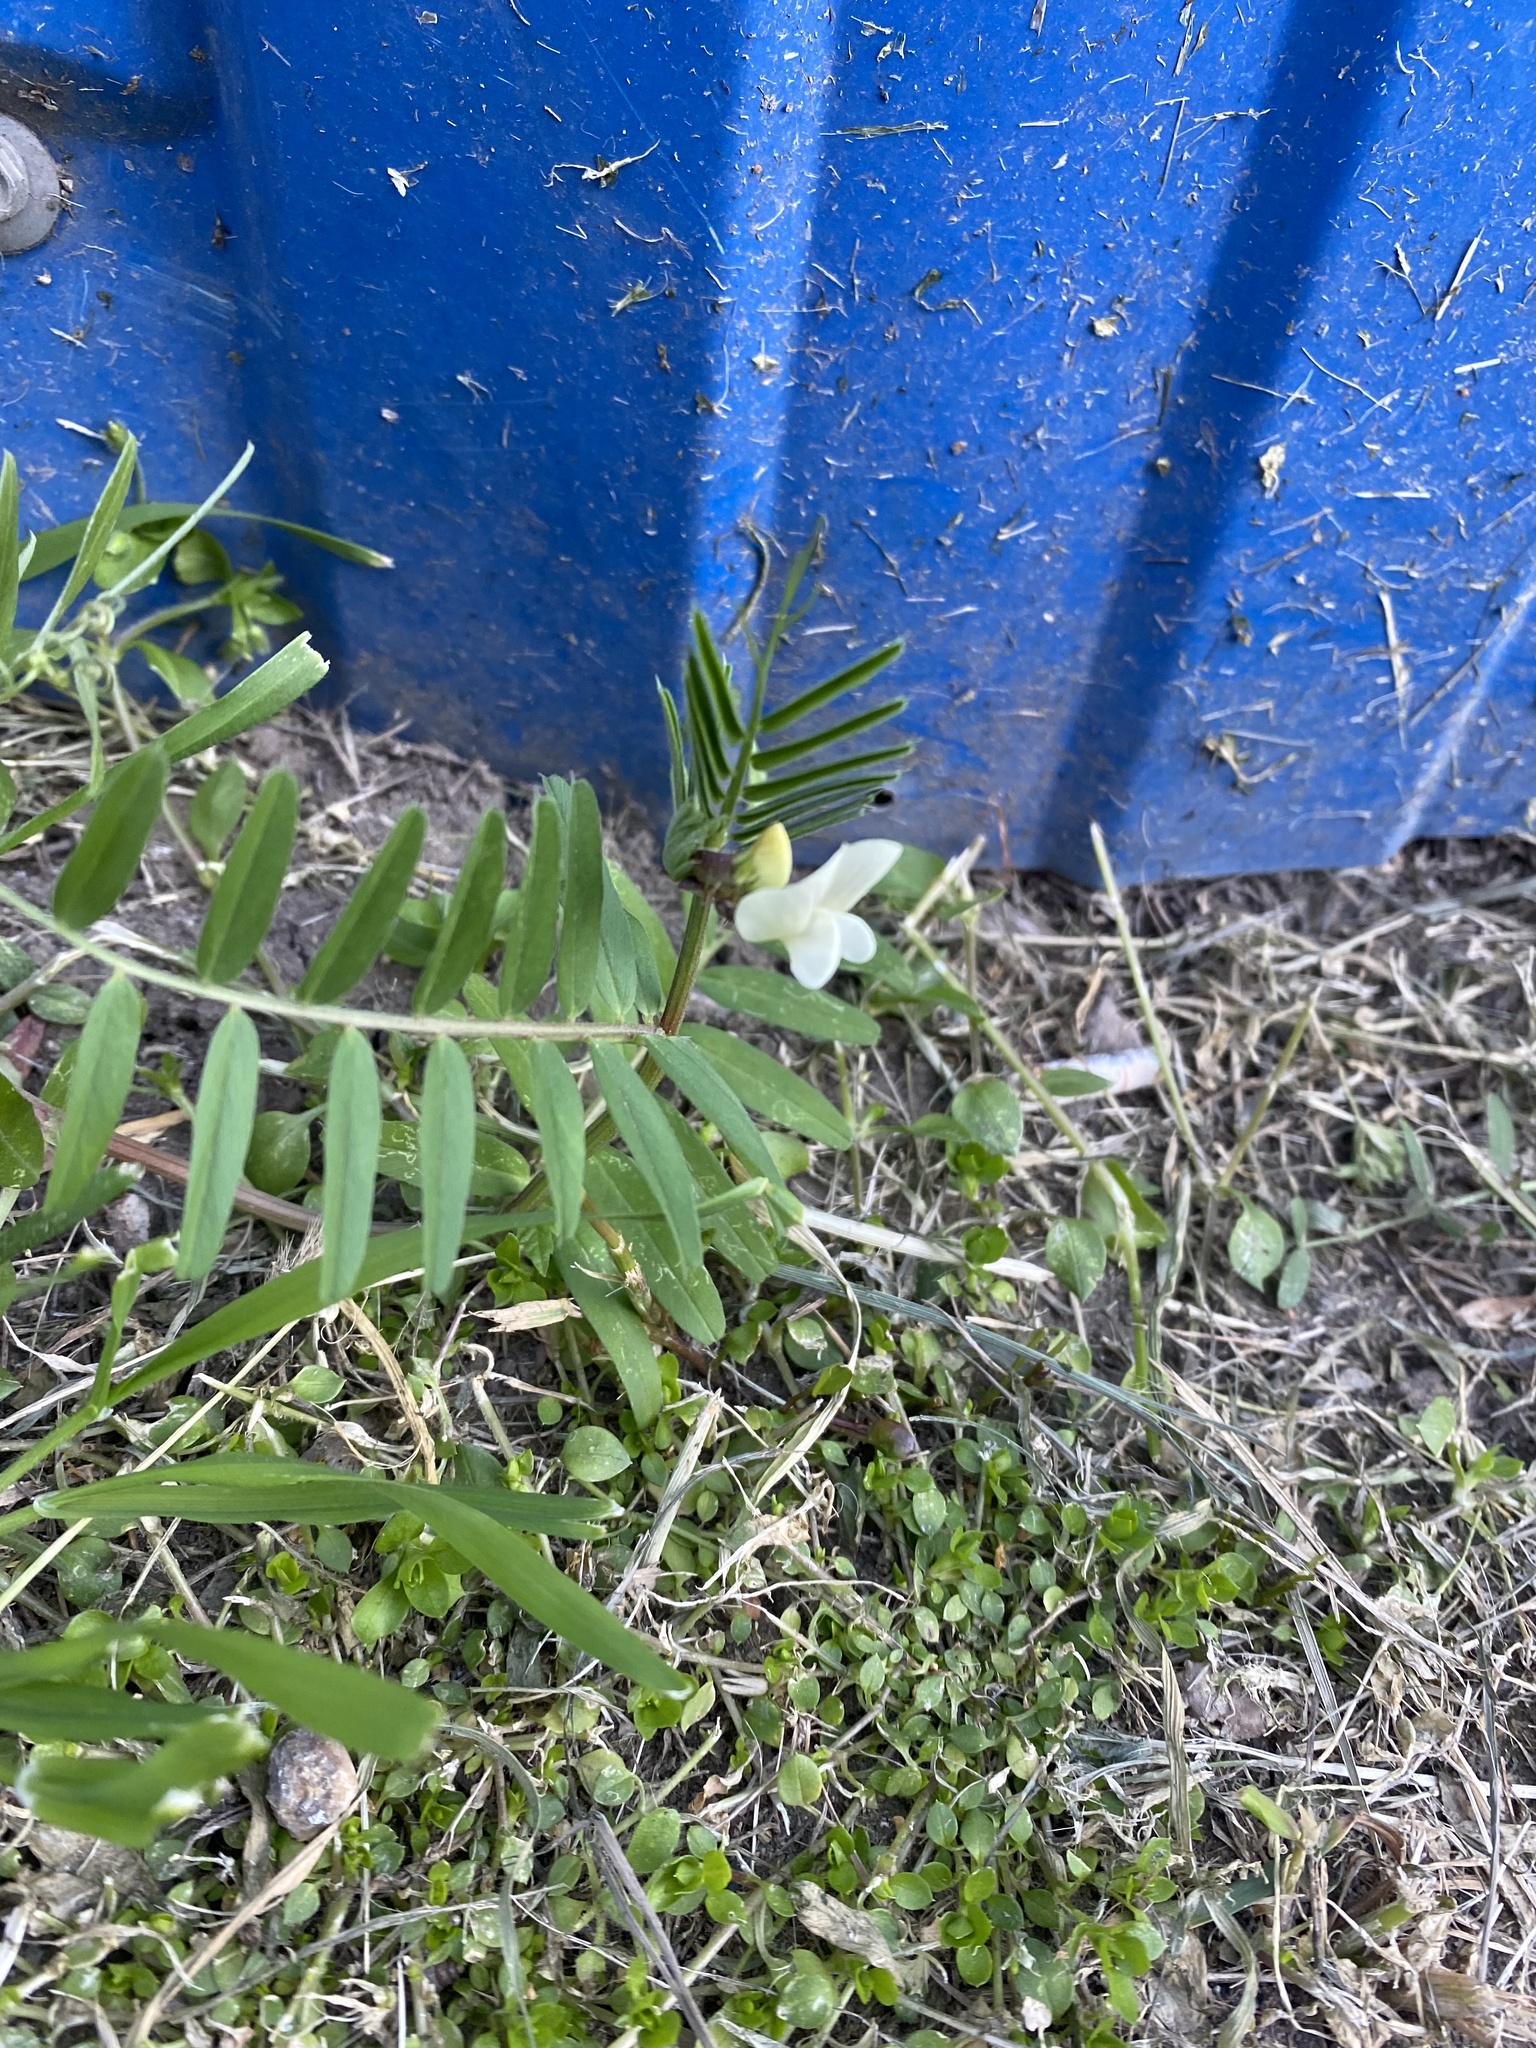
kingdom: Plantae
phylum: Tracheophyta
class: Magnoliopsida
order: Fabales
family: Fabaceae
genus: Vicia
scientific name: Vicia grandiflora
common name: Large yellow vetch
